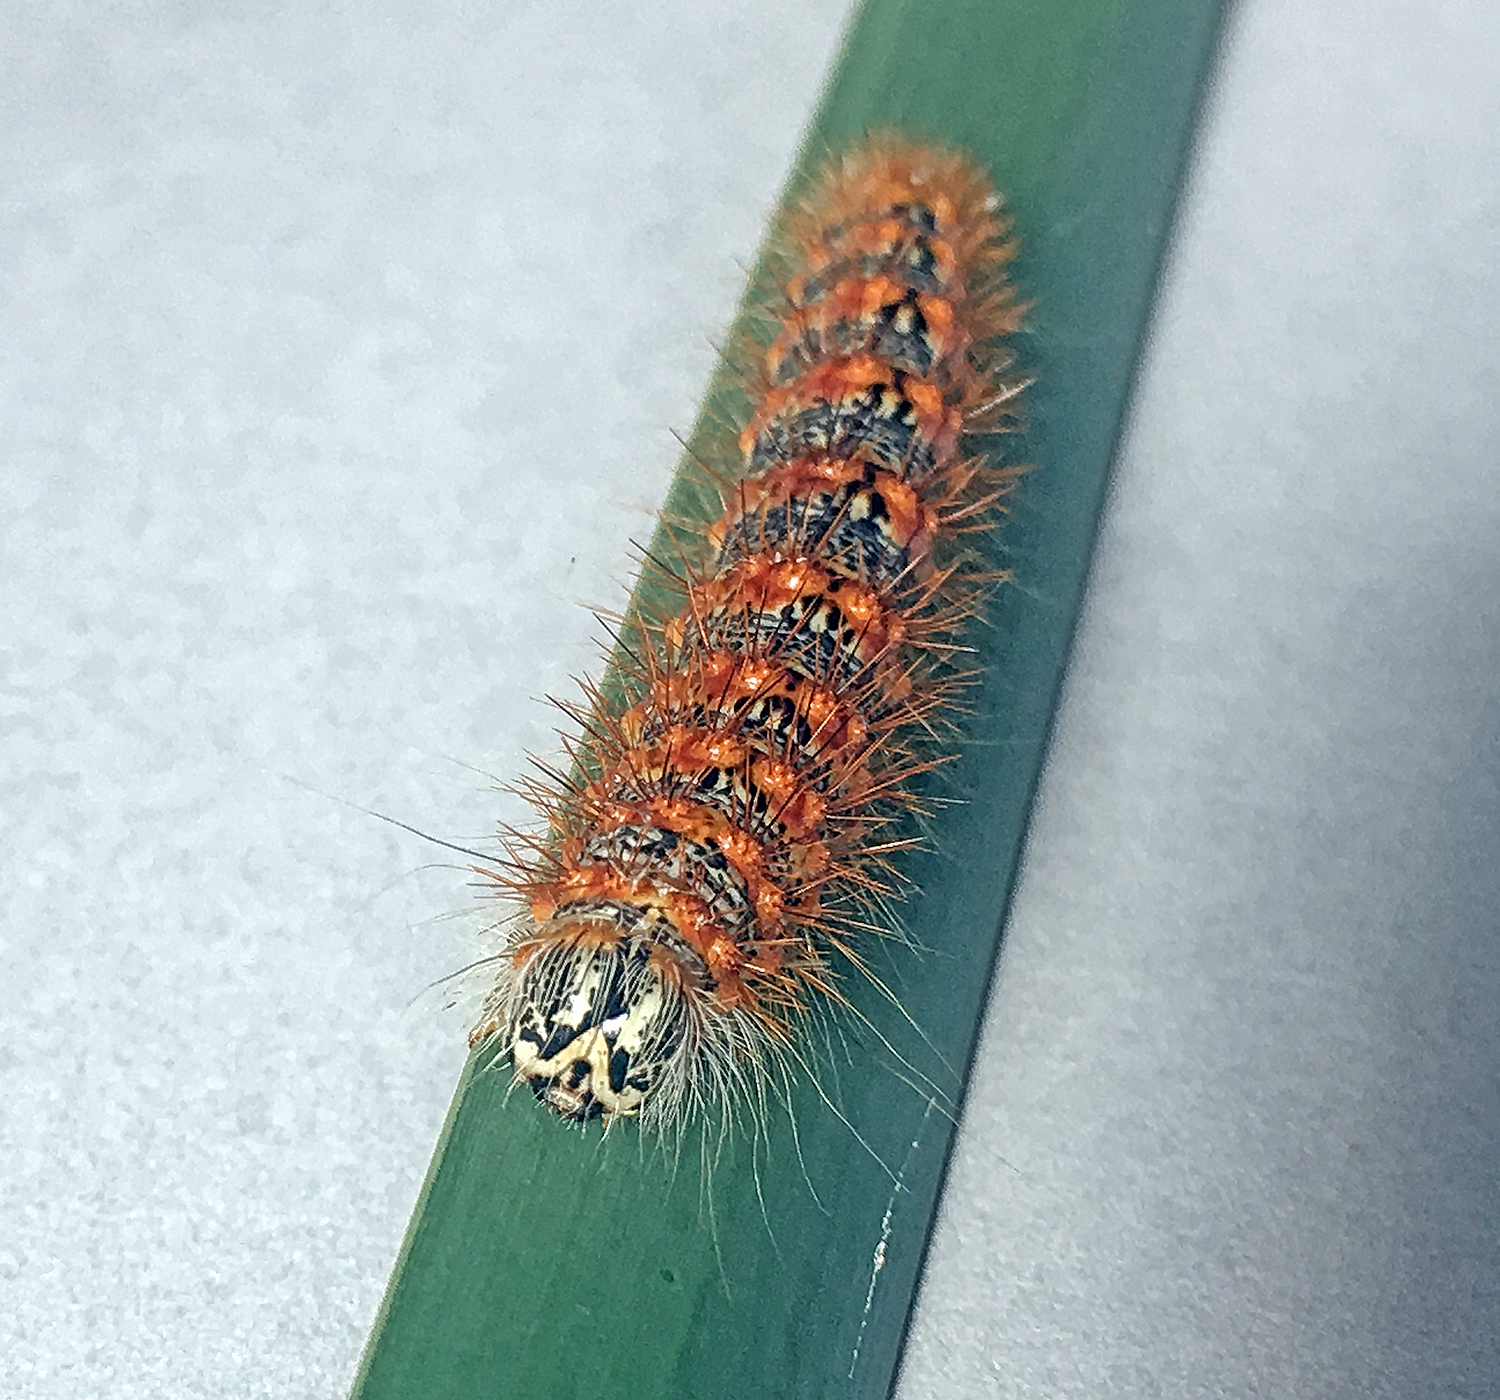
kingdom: Animalia
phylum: Arthropoda
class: Insecta
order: Lepidoptera
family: Noctuidae
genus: Acronicta
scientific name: Acronicta insularis
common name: Henry's marsh moth
